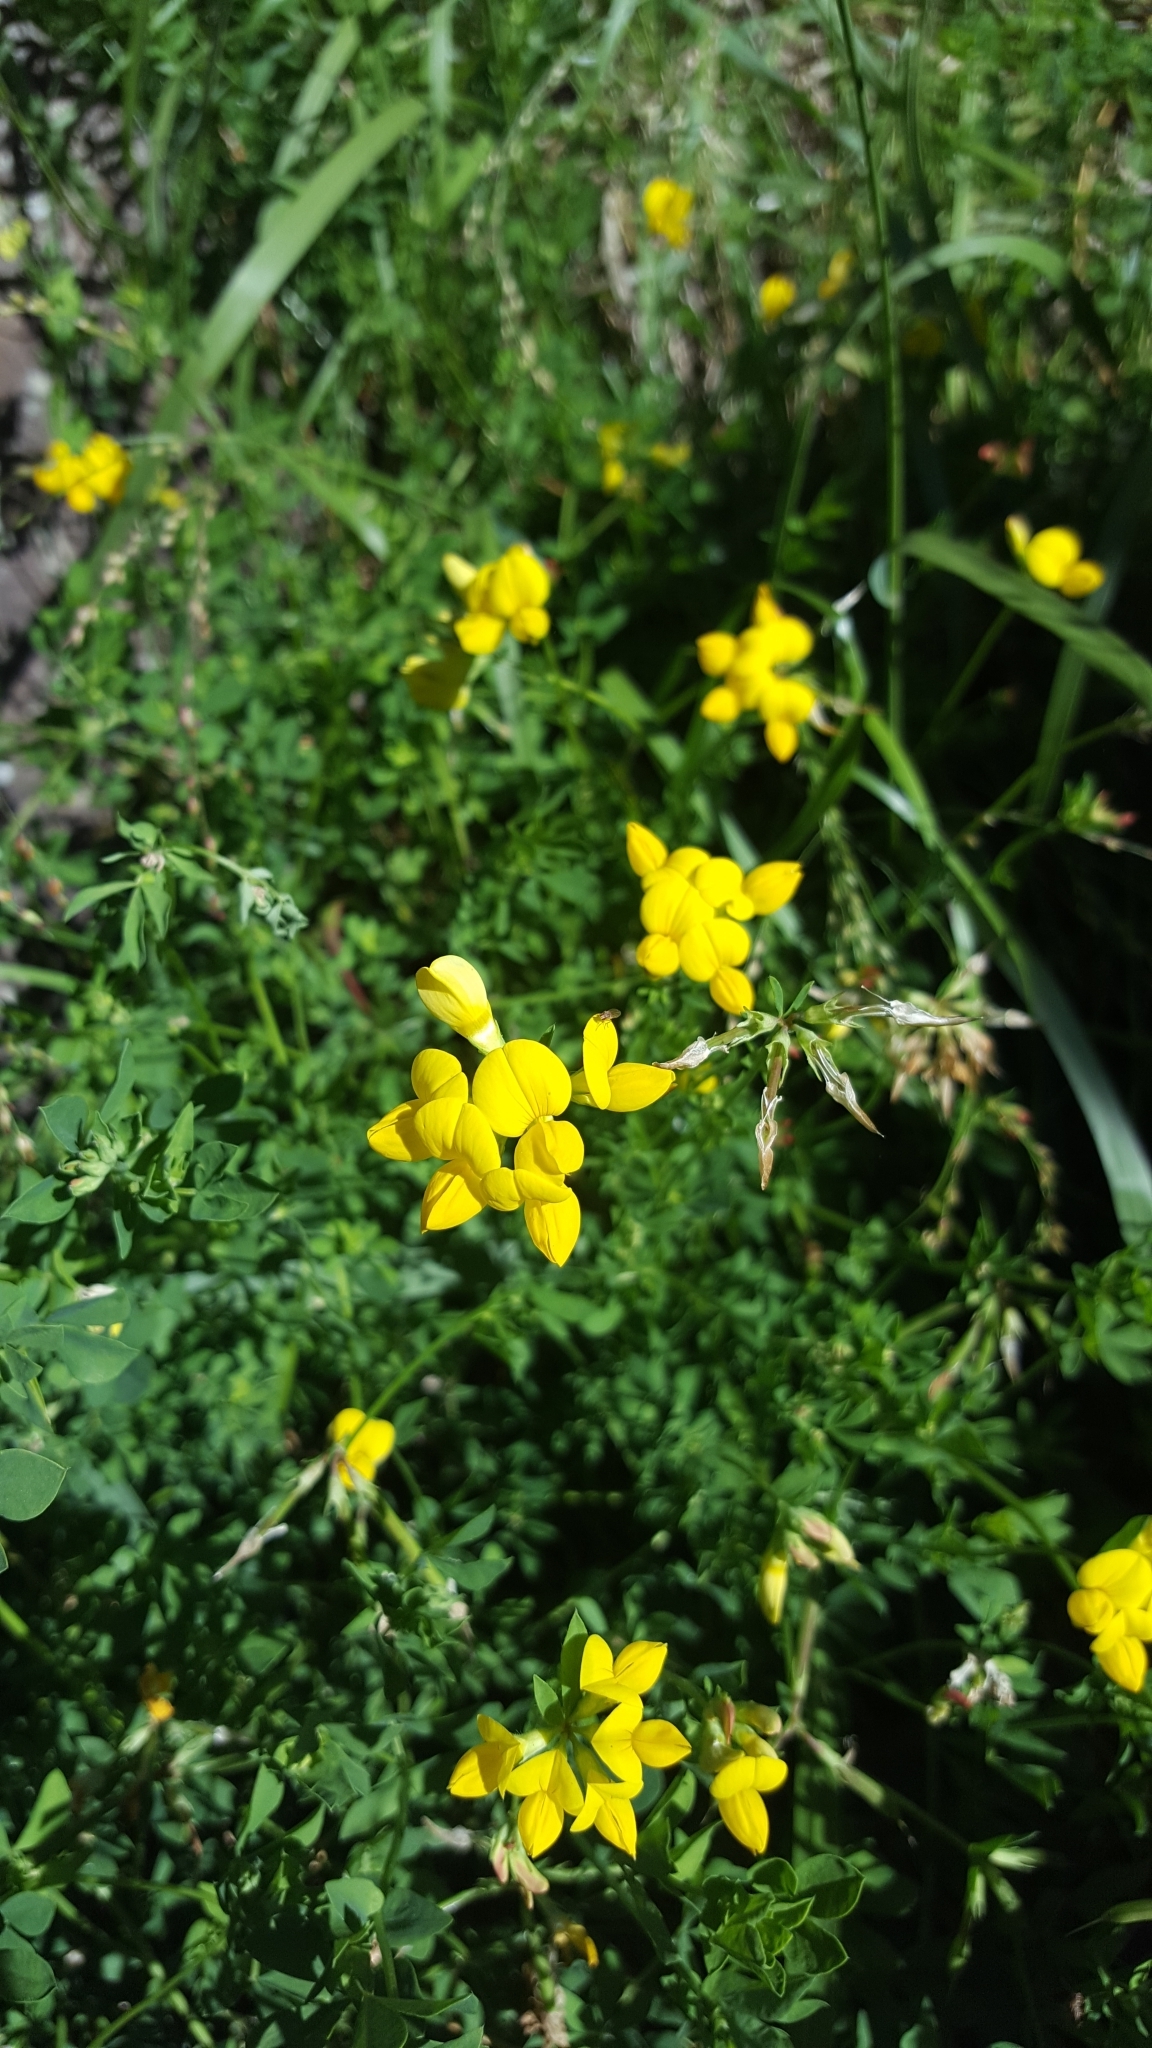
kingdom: Plantae
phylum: Tracheophyta
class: Magnoliopsida
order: Fabales
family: Fabaceae
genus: Lotus
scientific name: Lotus corniculatus
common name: Common bird's-foot-trefoil
